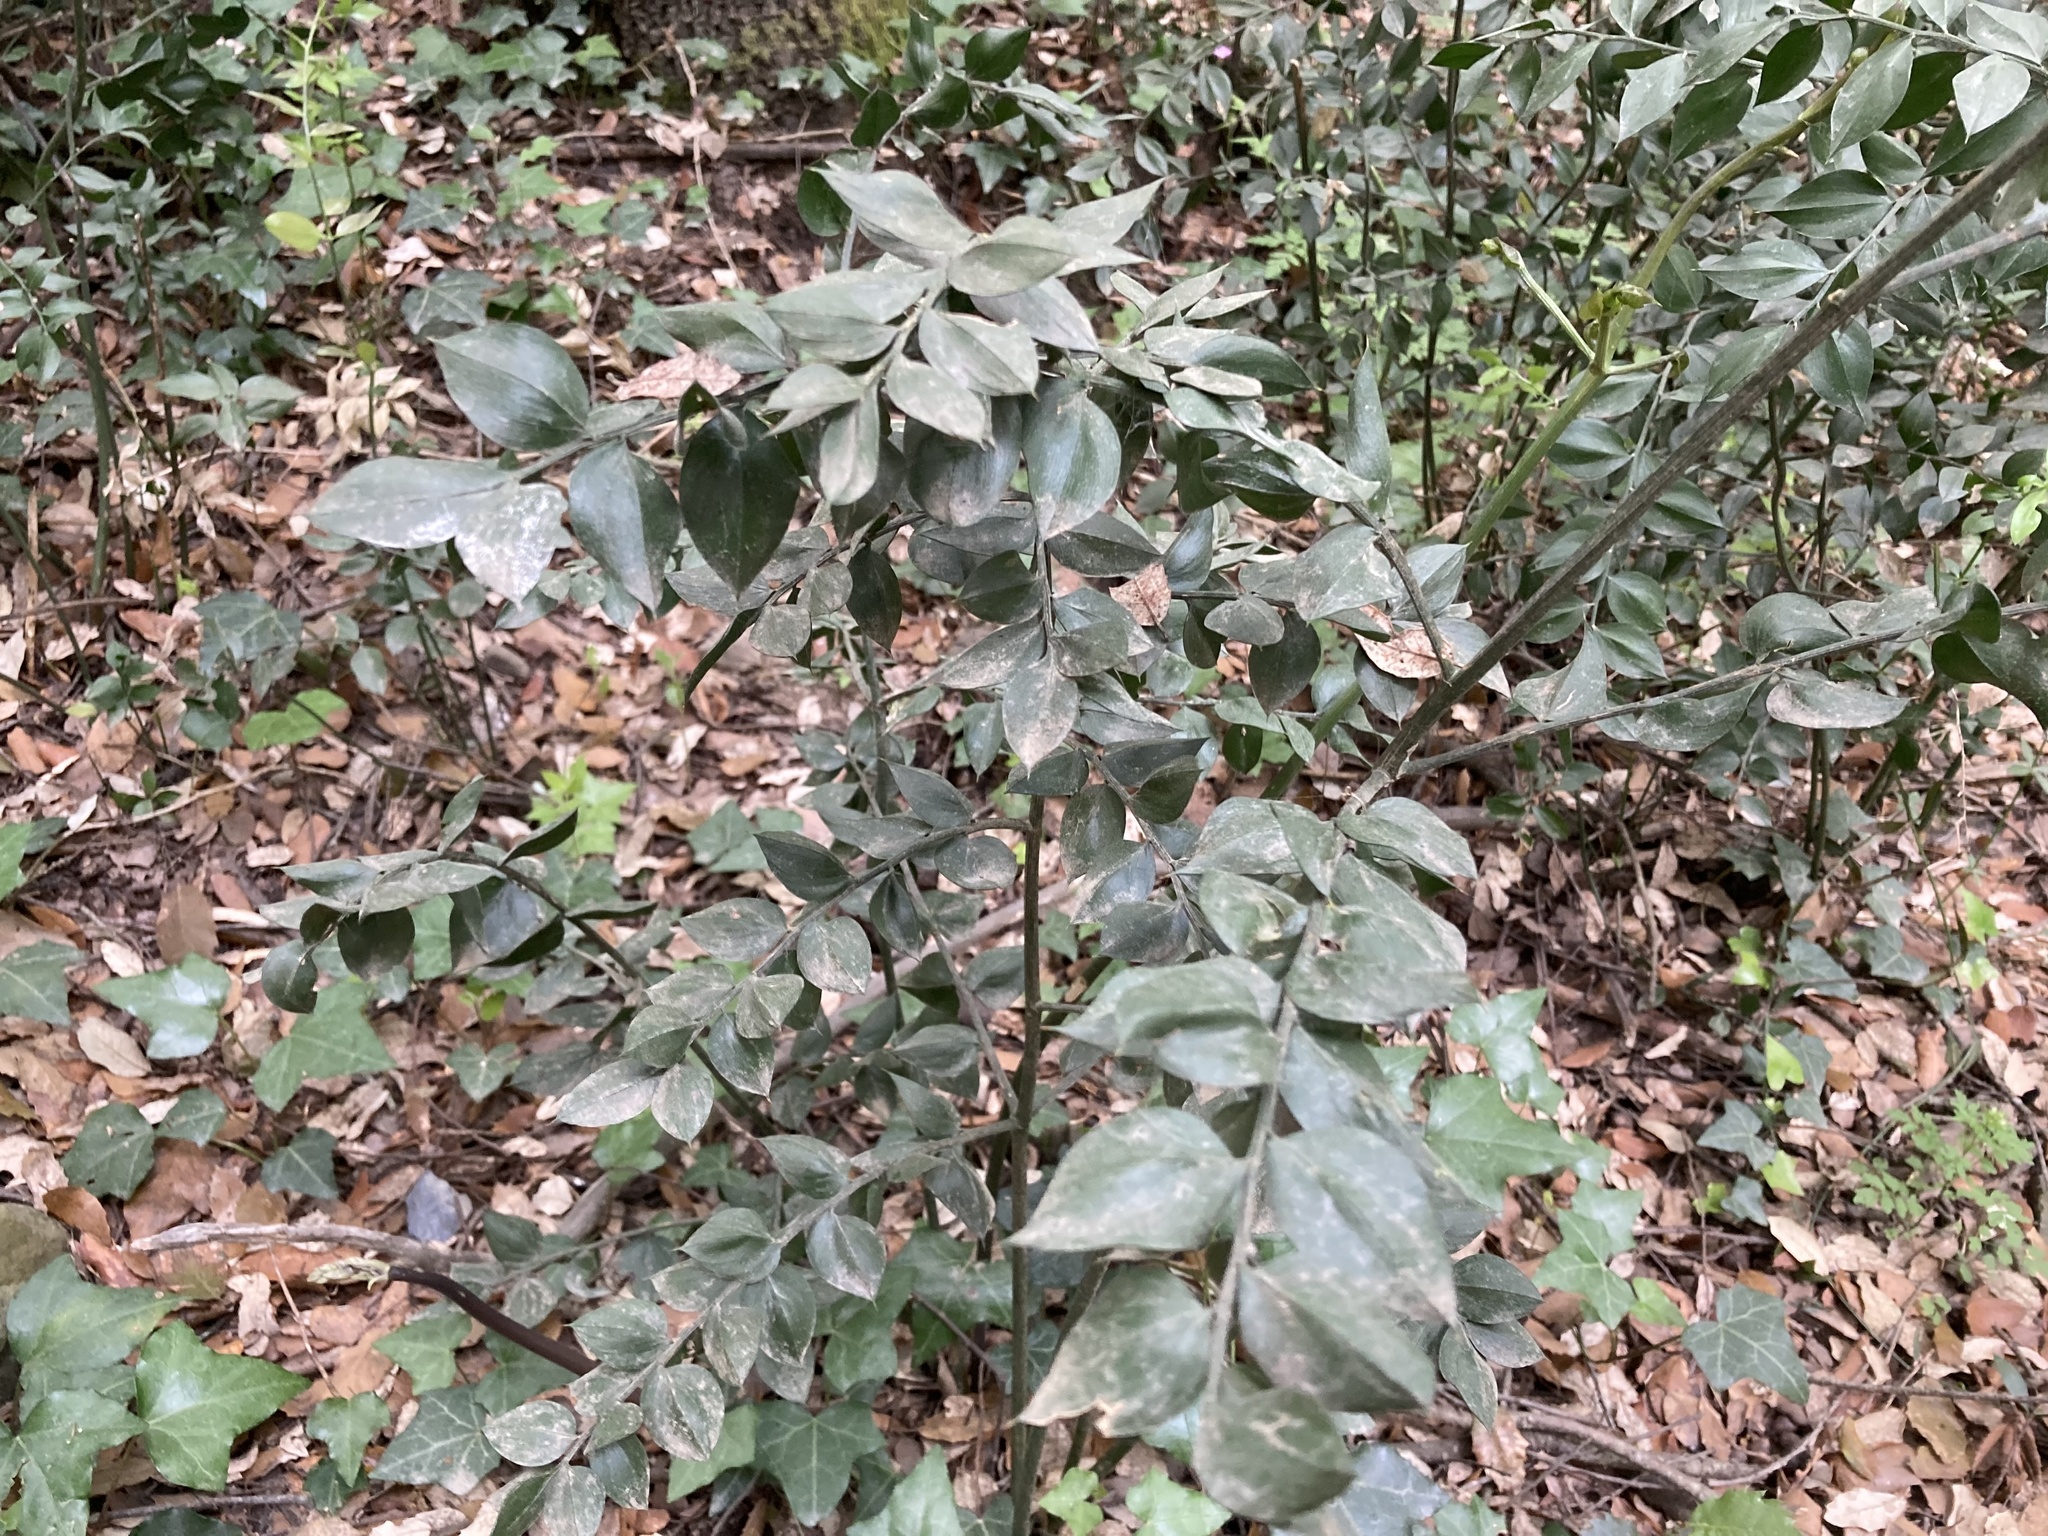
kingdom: Plantae
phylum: Tracheophyta
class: Liliopsida
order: Asparagales
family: Asparagaceae
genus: Ruscus
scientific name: Ruscus aculeatus
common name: Butcher's-broom
